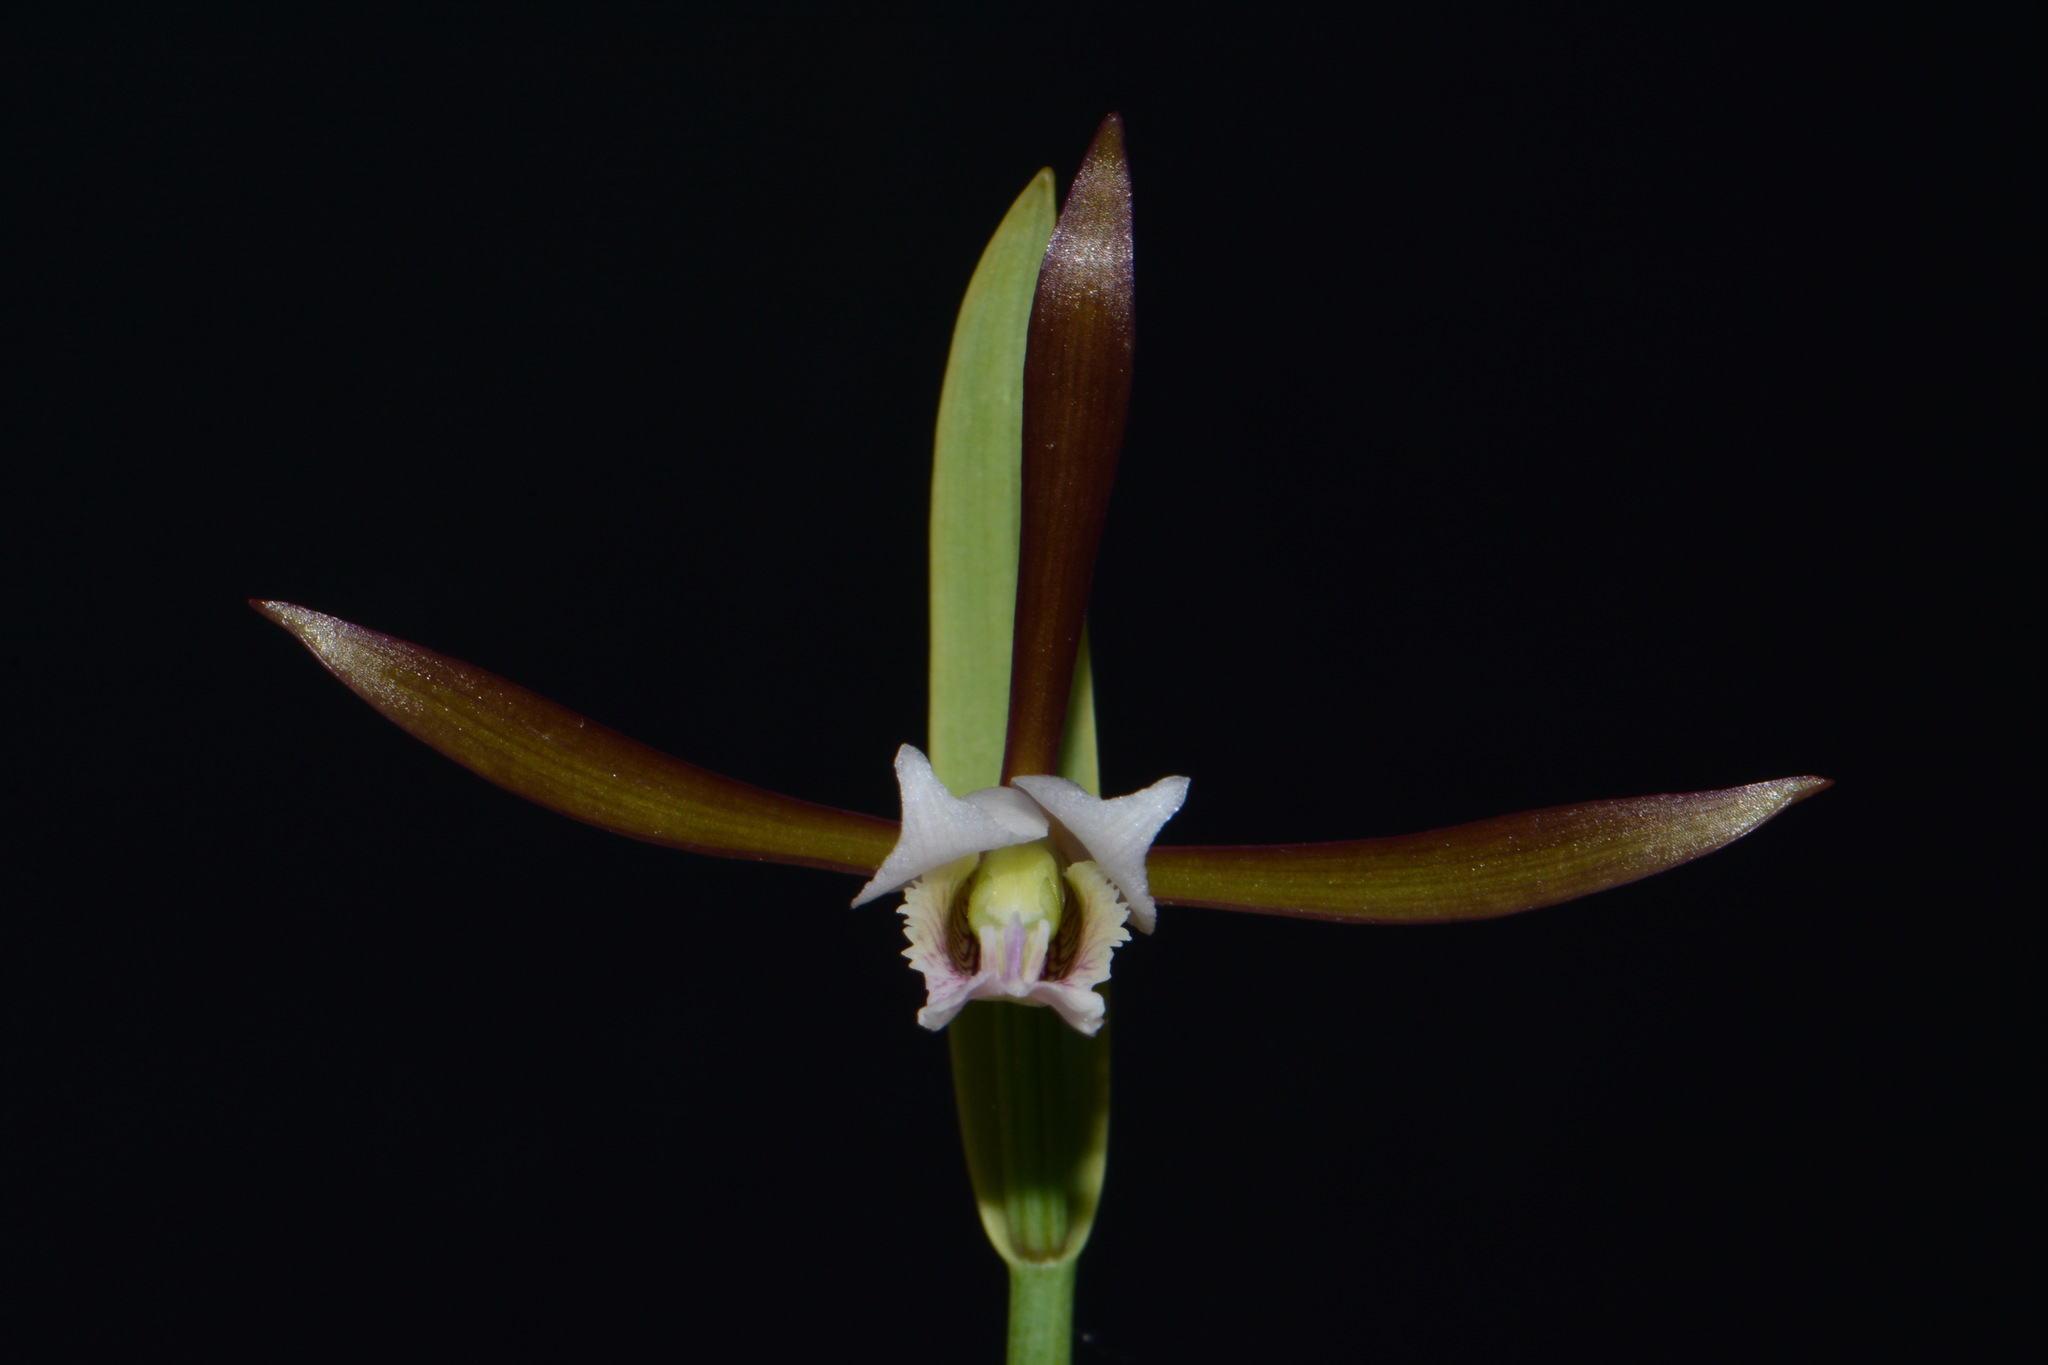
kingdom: Plantae
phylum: Tracheophyta
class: Liliopsida
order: Asparagales
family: Orchidaceae
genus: Cleistesiopsis
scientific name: Cleistesiopsis oricamporum
